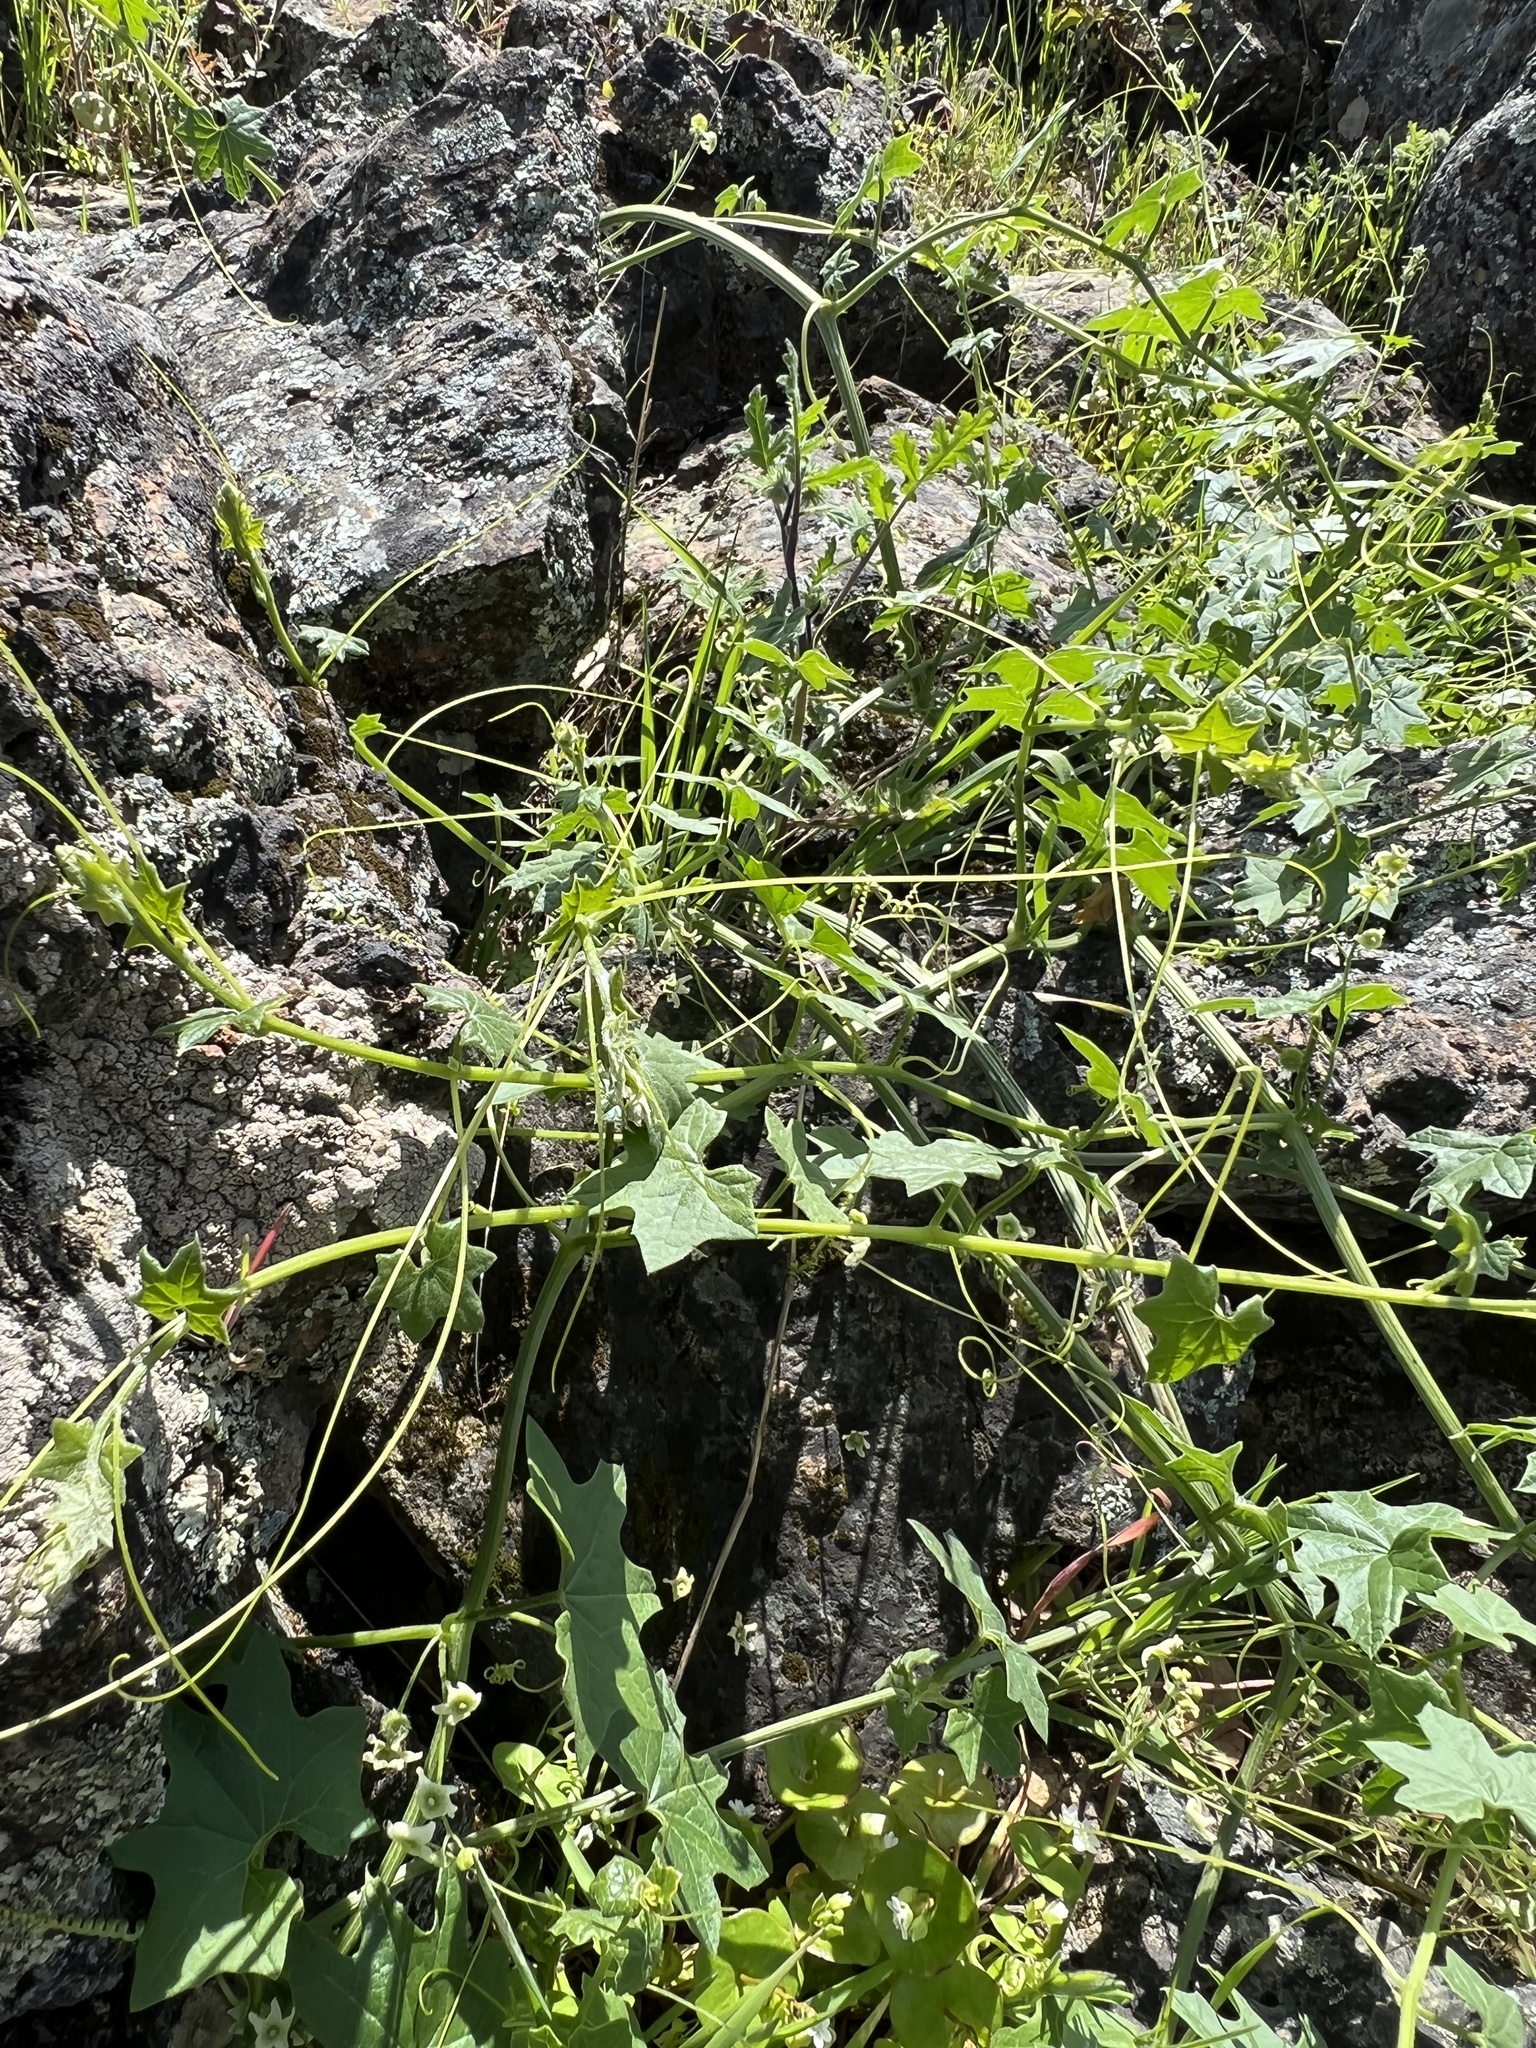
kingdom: Plantae
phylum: Tracheophyta
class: Magnoliopsida
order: Cucurbitales
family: Cucurbitaceae
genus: Marah
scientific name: Marah fabacea
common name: California manroot
